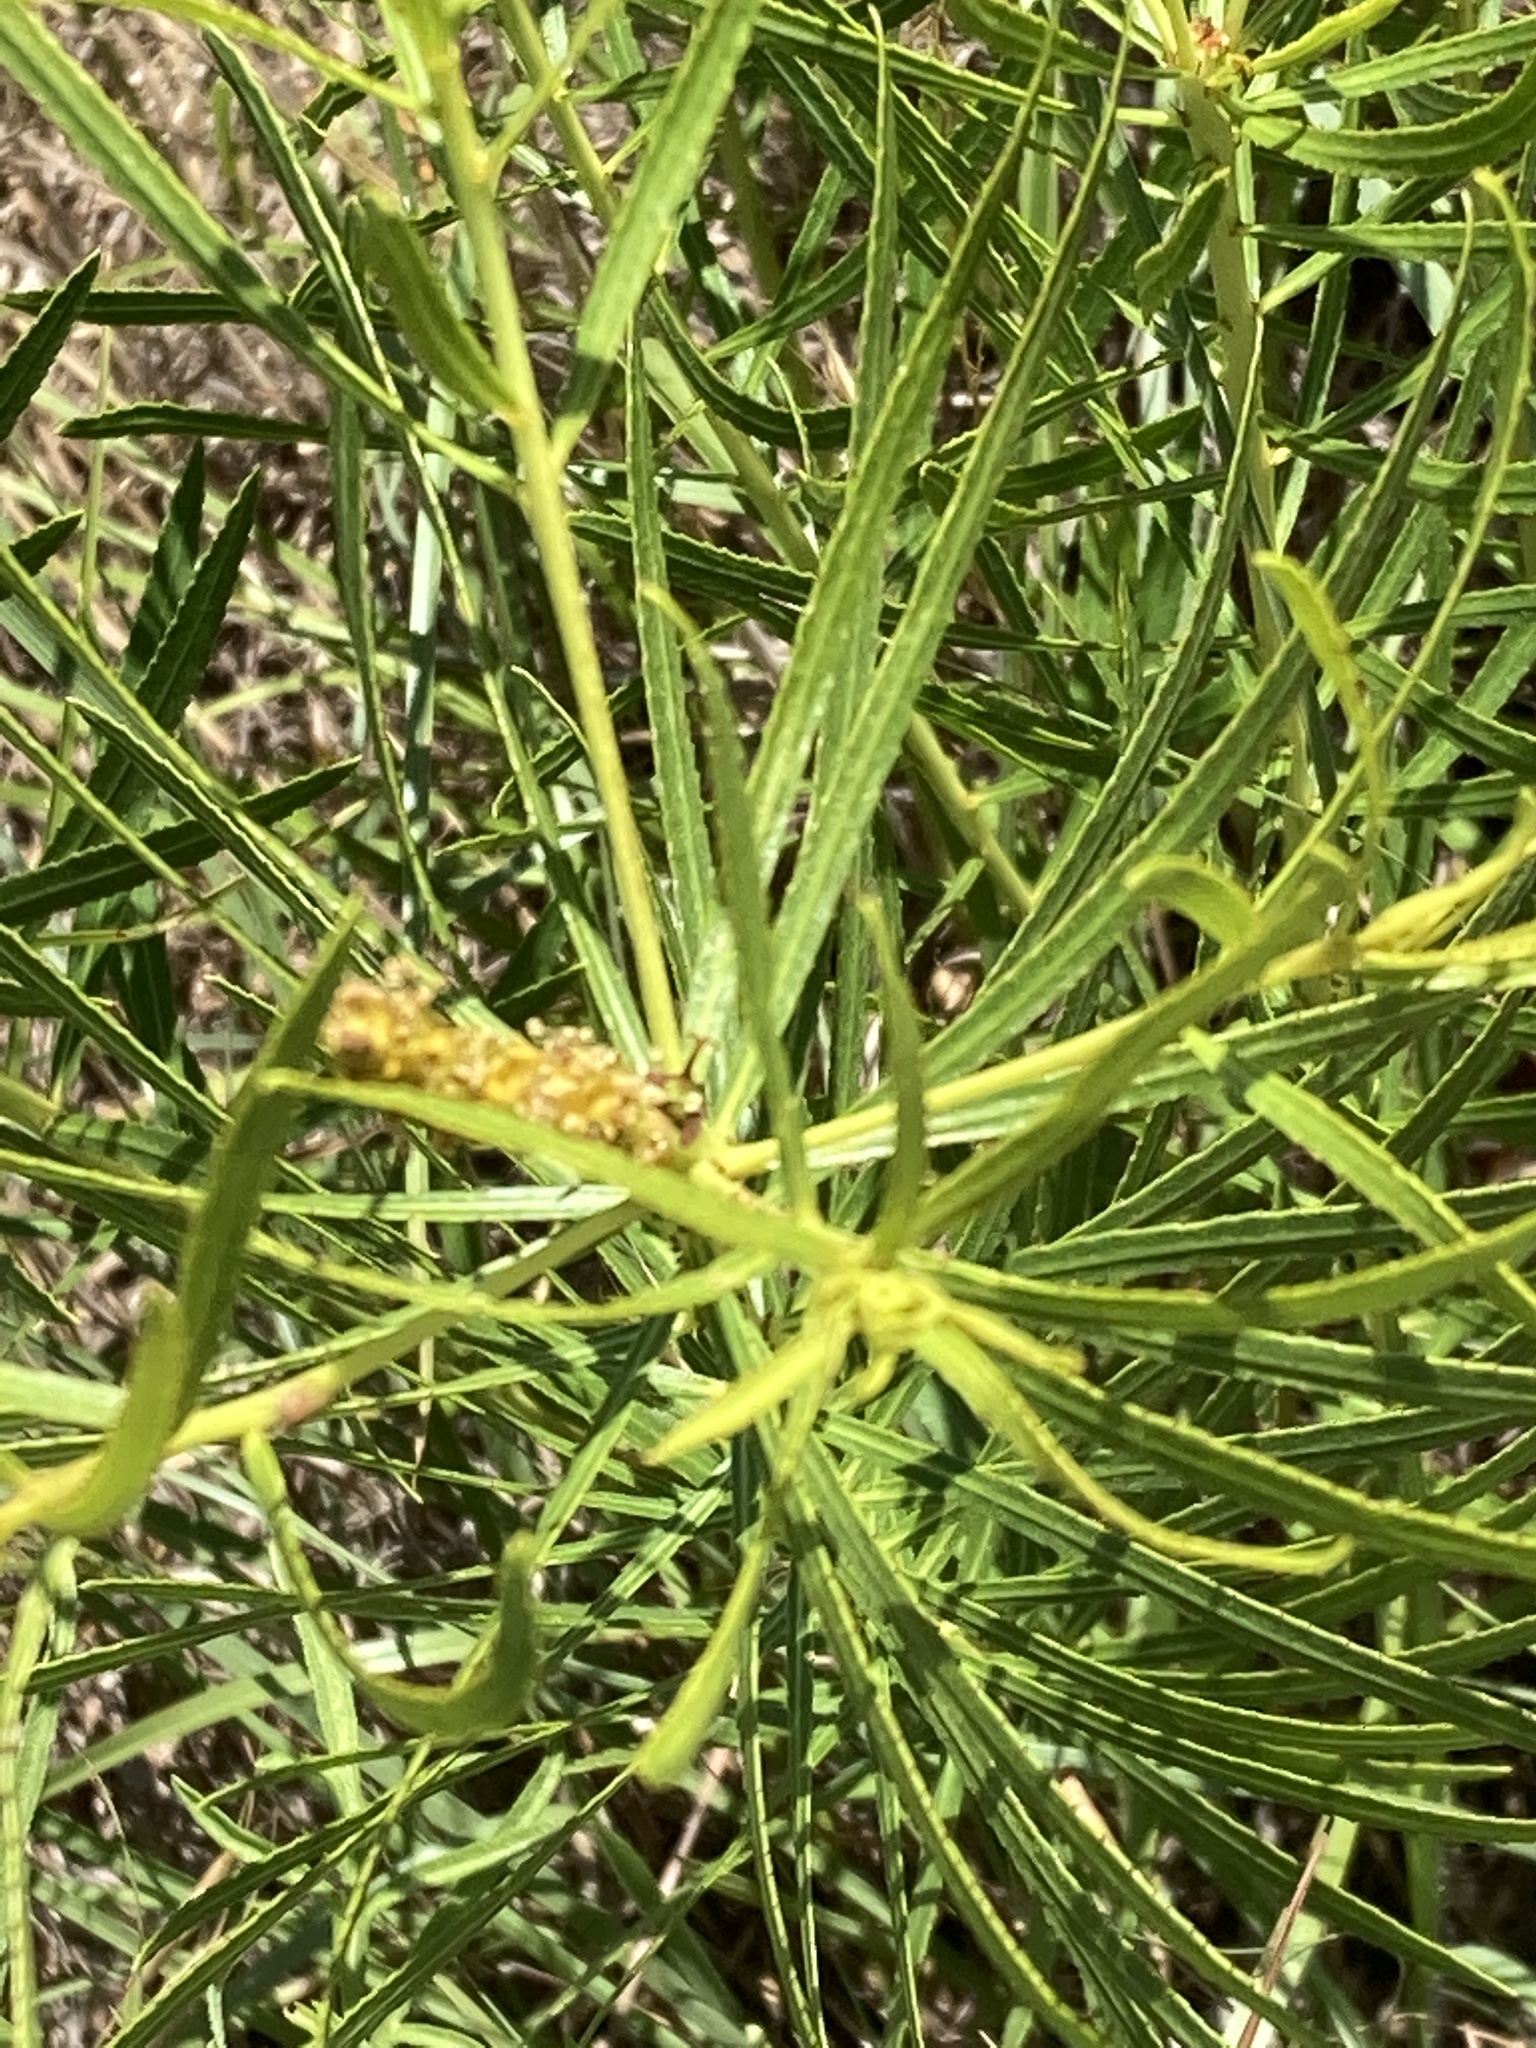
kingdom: Plantae
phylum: Tracheophyta
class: Magnoliopsida
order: Malpighiales
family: Euphorbiaceae
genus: Stillingia
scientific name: Stillingia texana
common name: Texas stillingia
